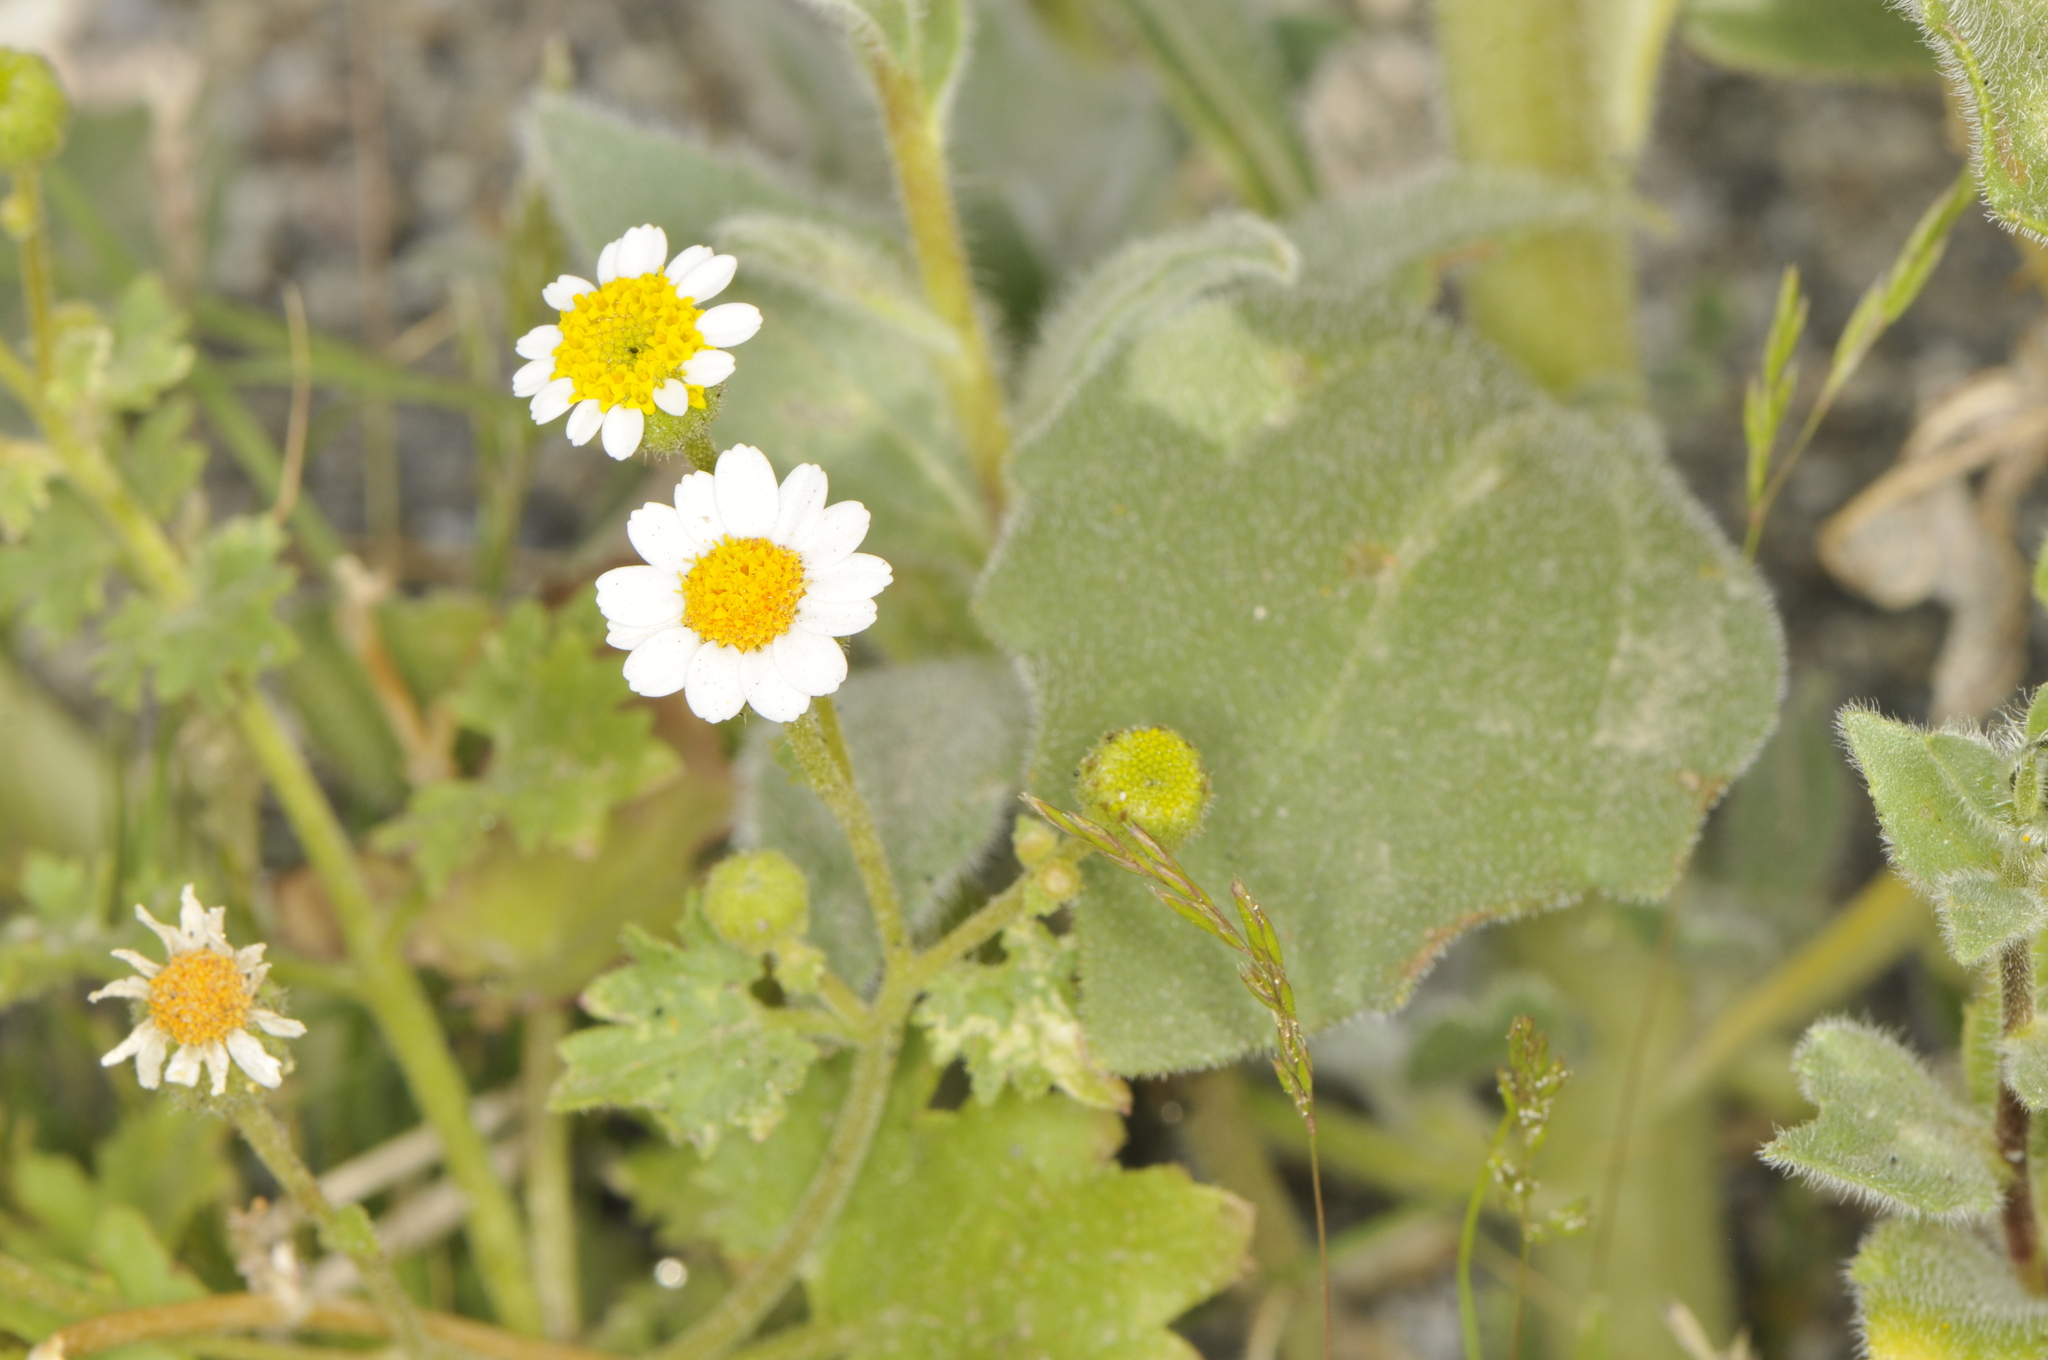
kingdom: Plantae
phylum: Tracheophyta
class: Magnoliopsida
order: Asterales
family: Asteraceae
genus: Laphamia
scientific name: Laphamia emoryi
